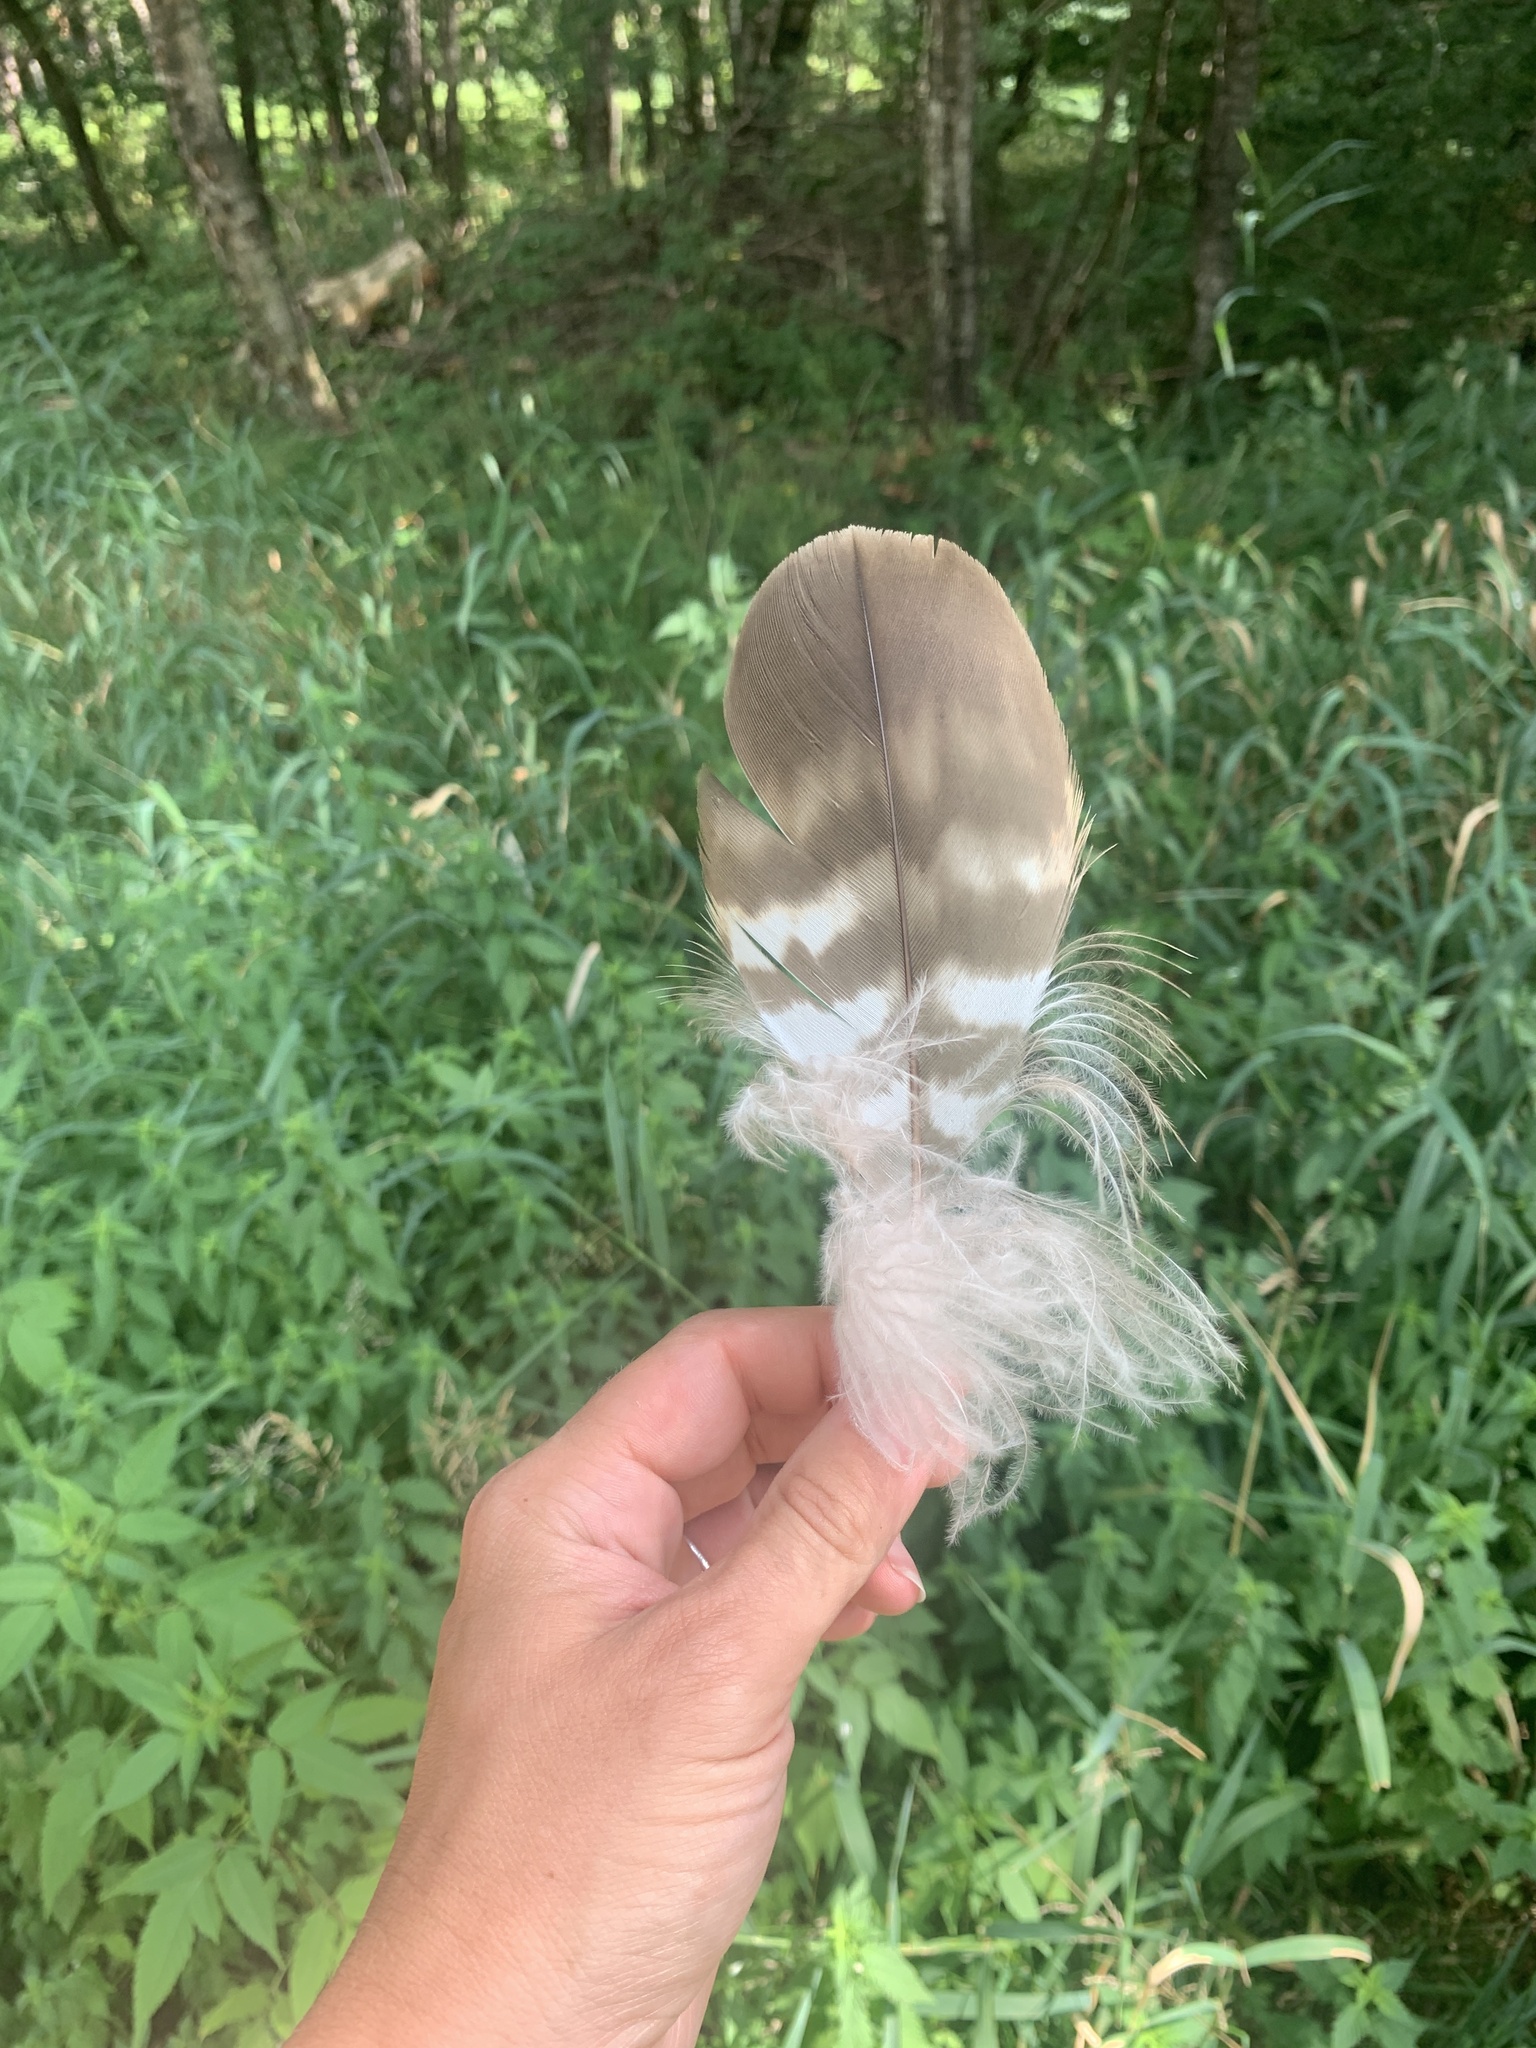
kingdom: Animalia
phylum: Chordata
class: Aves
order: Accipitriformes
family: Accipitridae
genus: Buteo
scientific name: Buteo buteo
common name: Common buzzard
